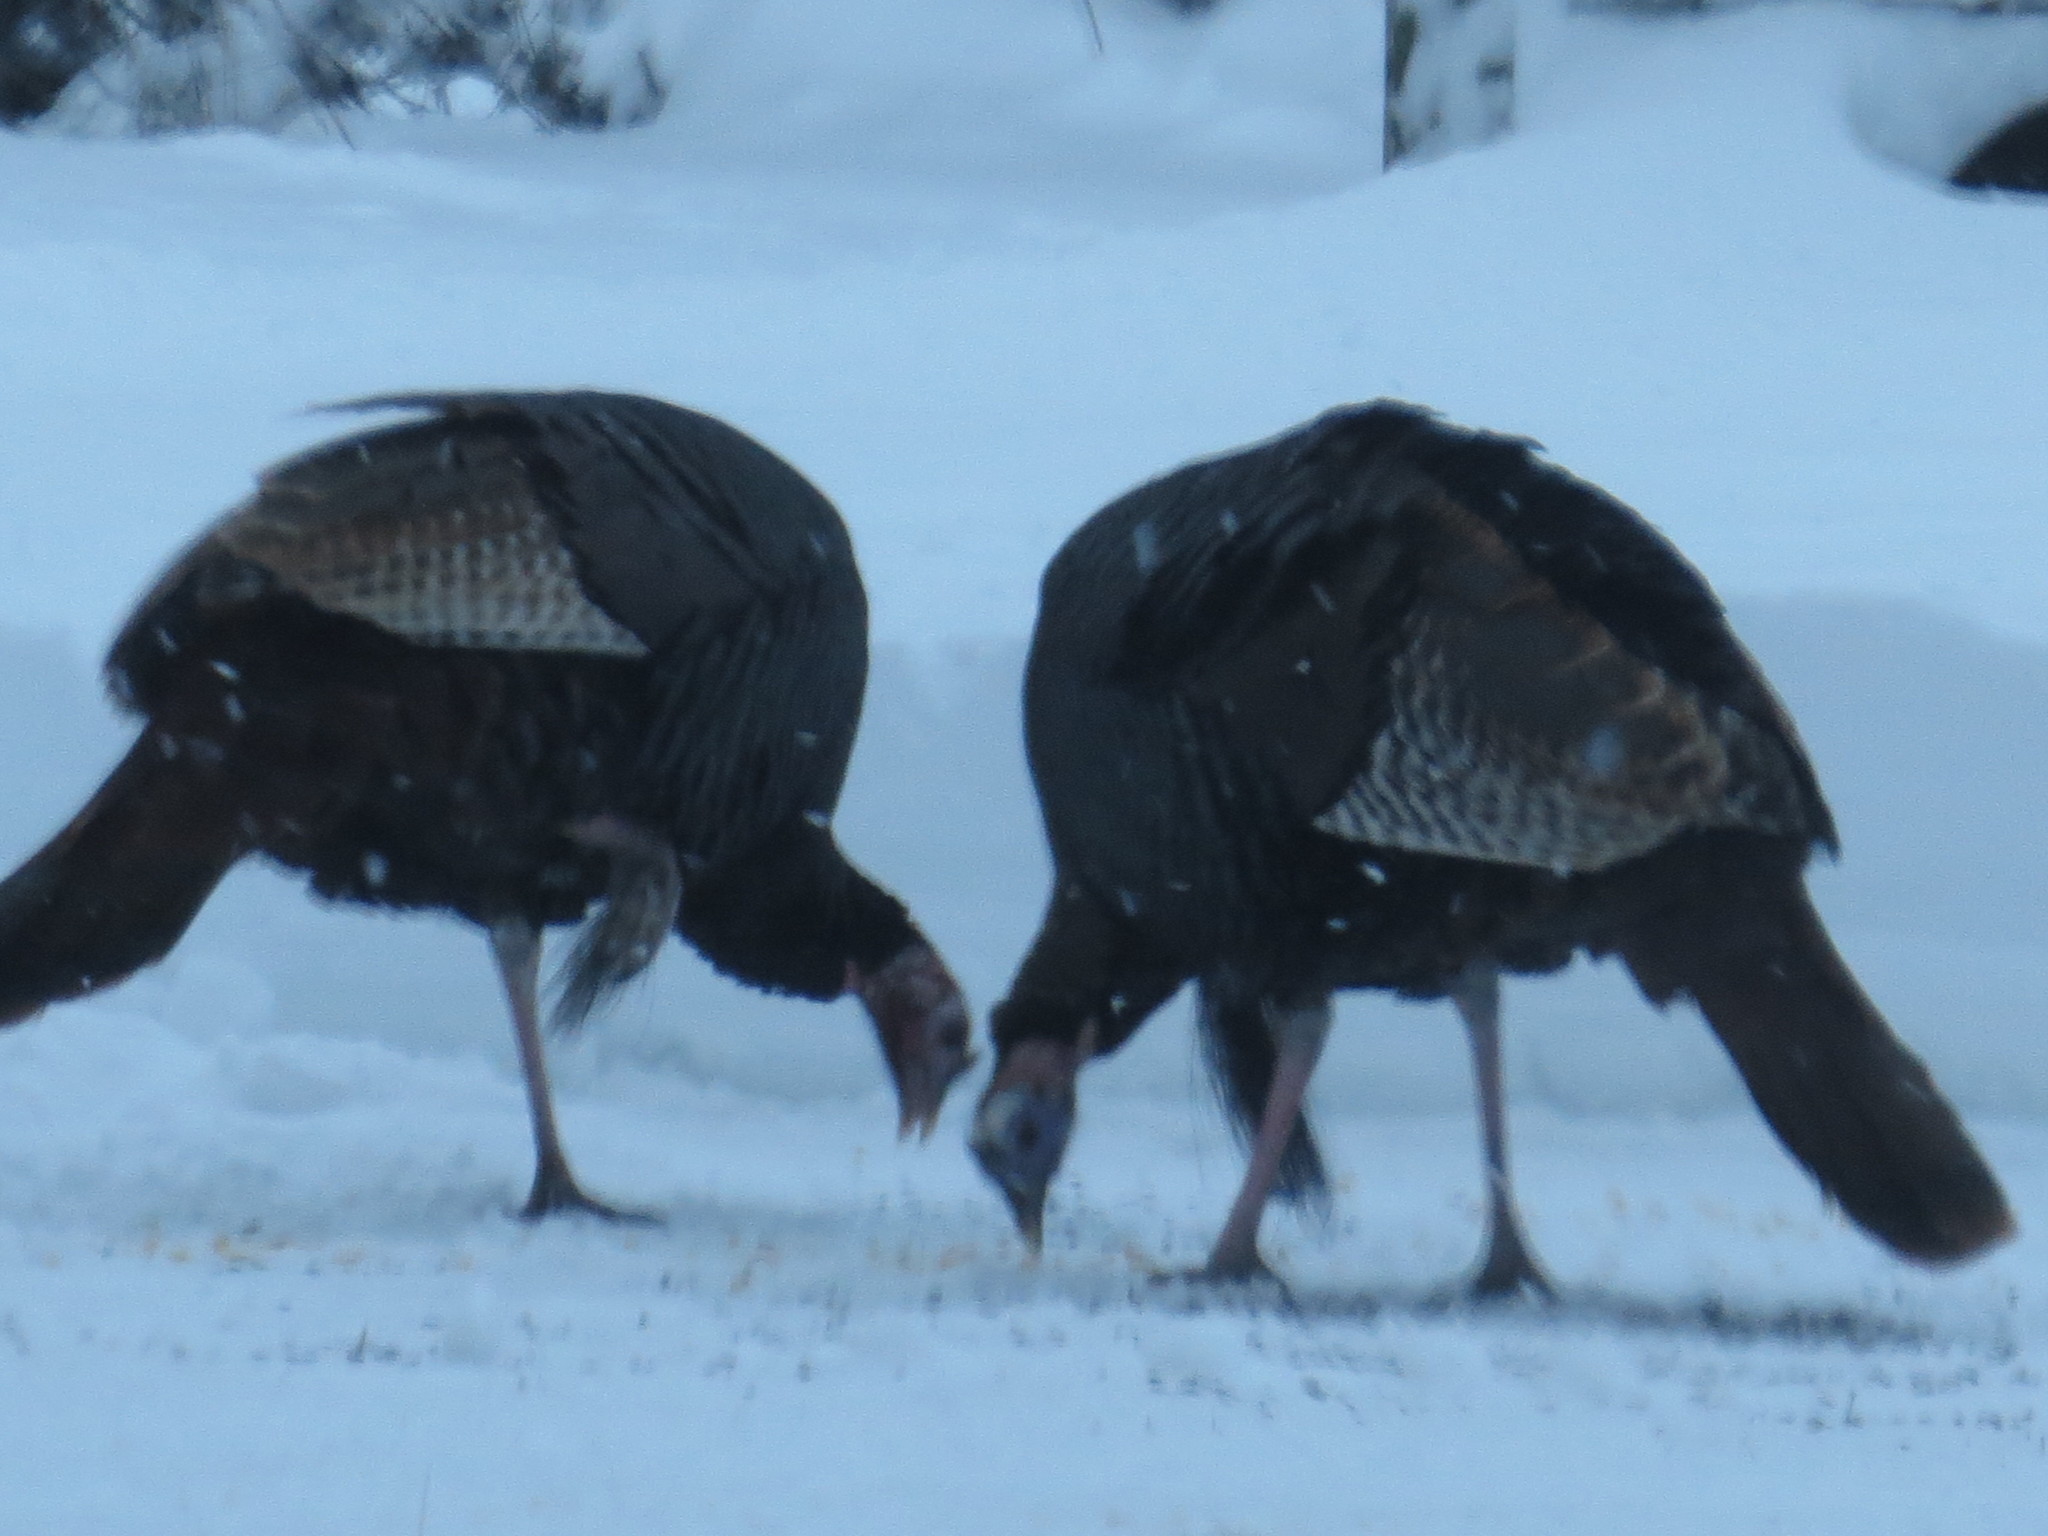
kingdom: Animalia
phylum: Chordata
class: Aves
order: Galliformes
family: Phasianidae
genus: Meleagris
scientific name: Meleagris gallopavo
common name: Wild turkey
